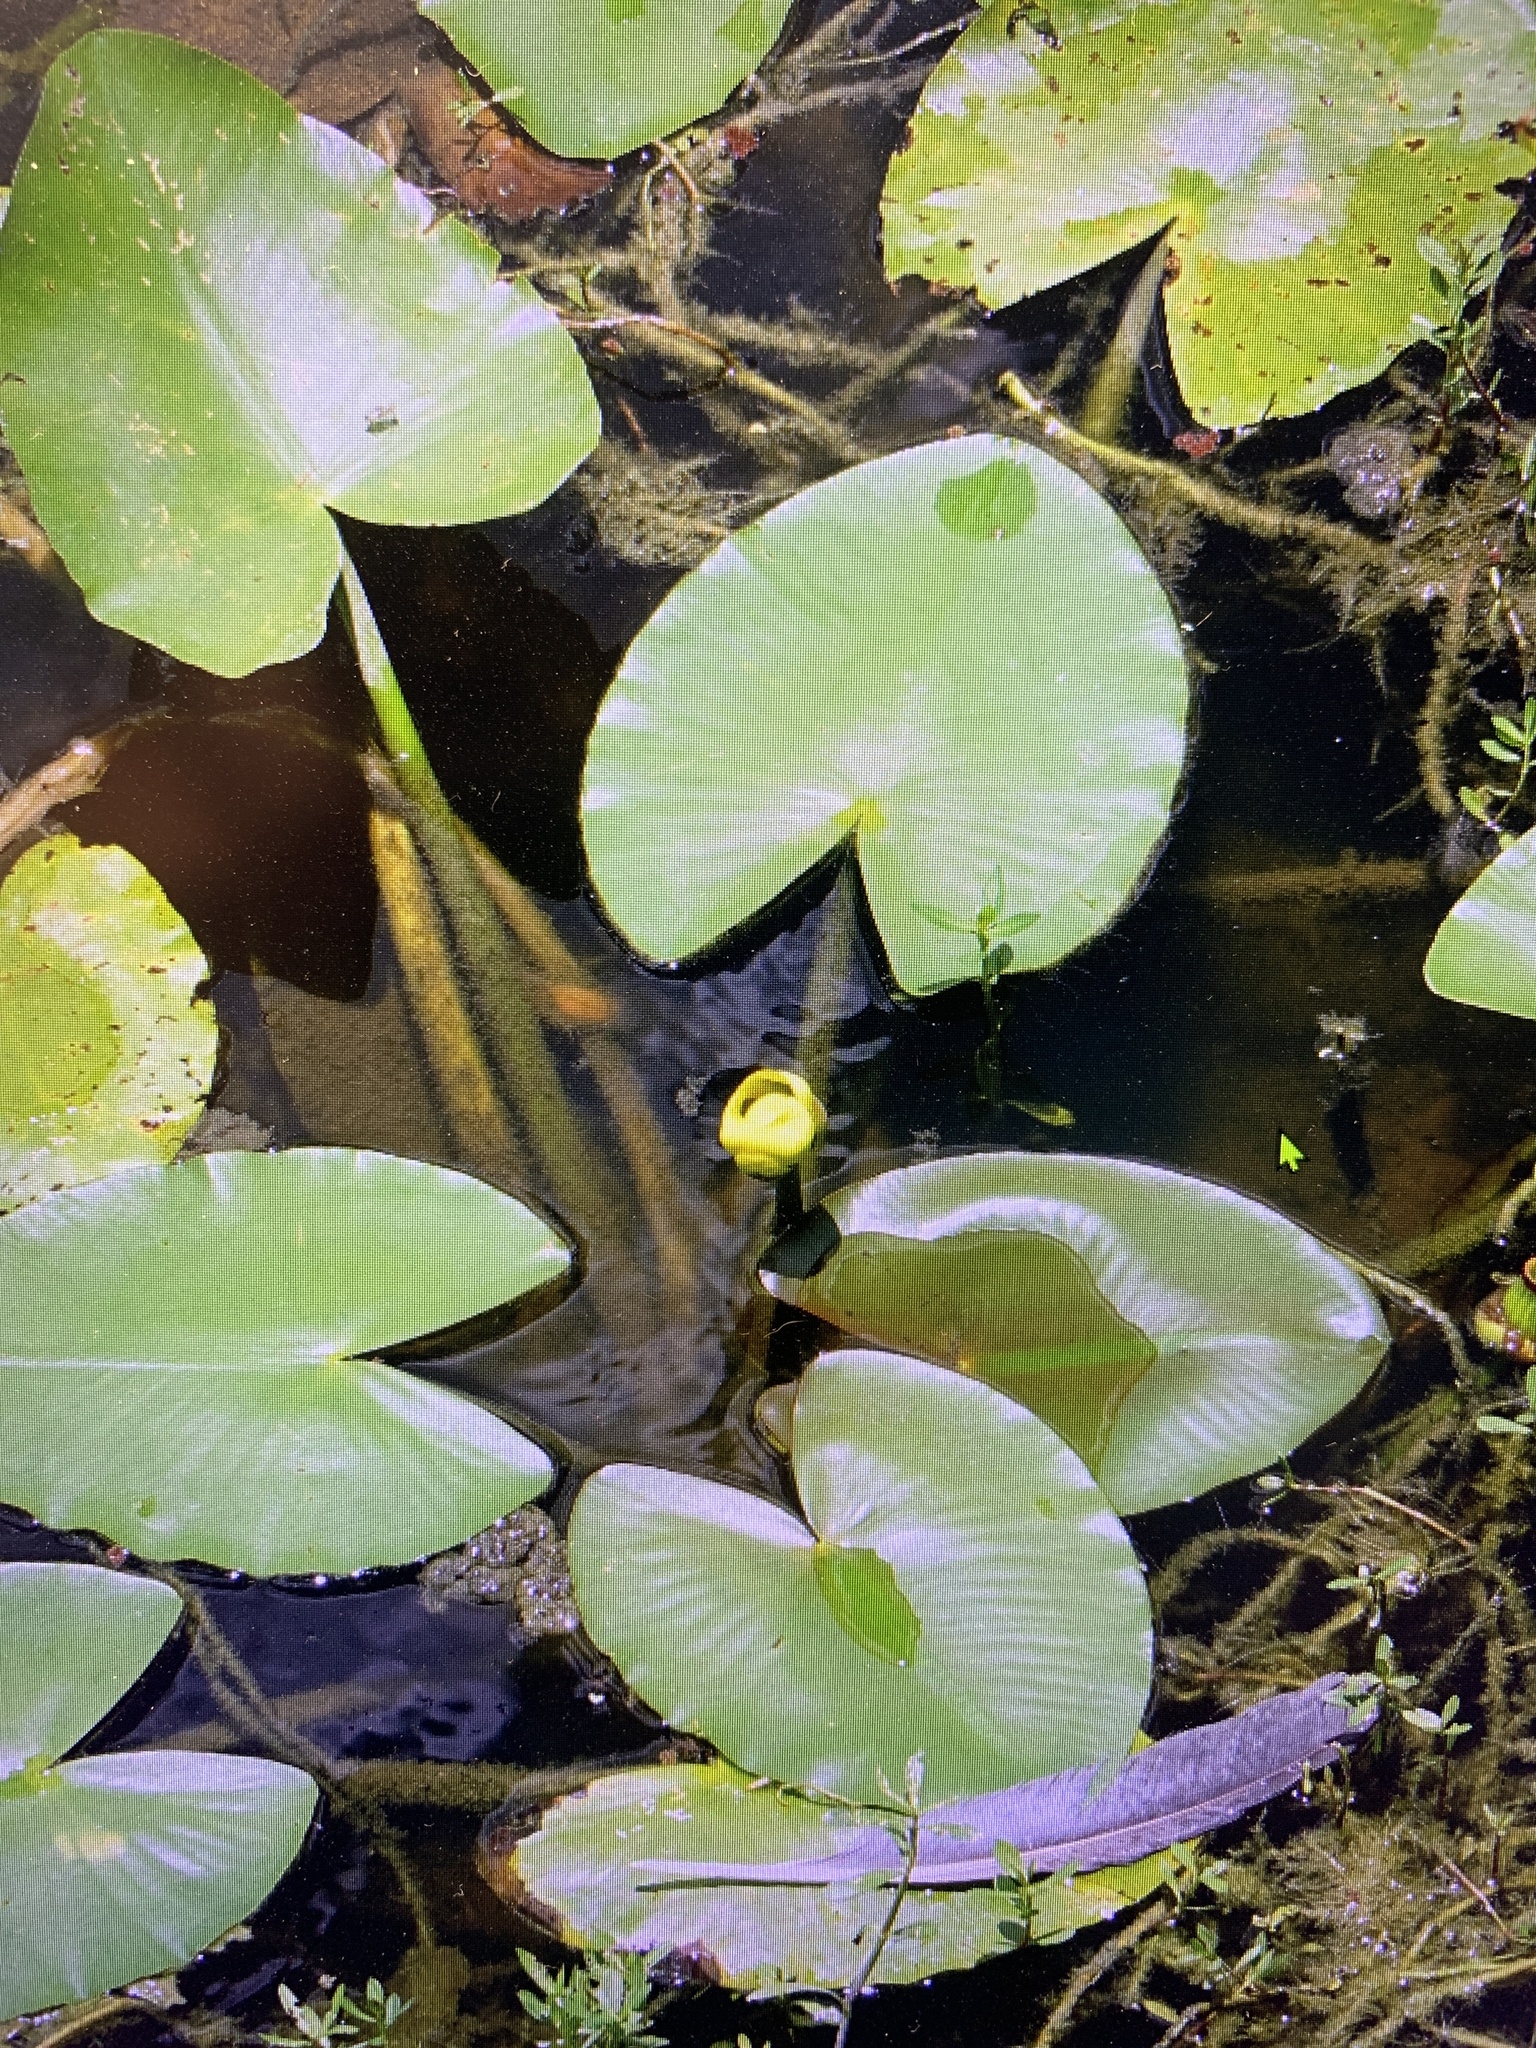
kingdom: Plantae
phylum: Tracheophyta
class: Magnoliopsida
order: Nymphaeales
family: Nymphaeaceae
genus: Nuphar
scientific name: Nuphar advena
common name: Spatter-dock
